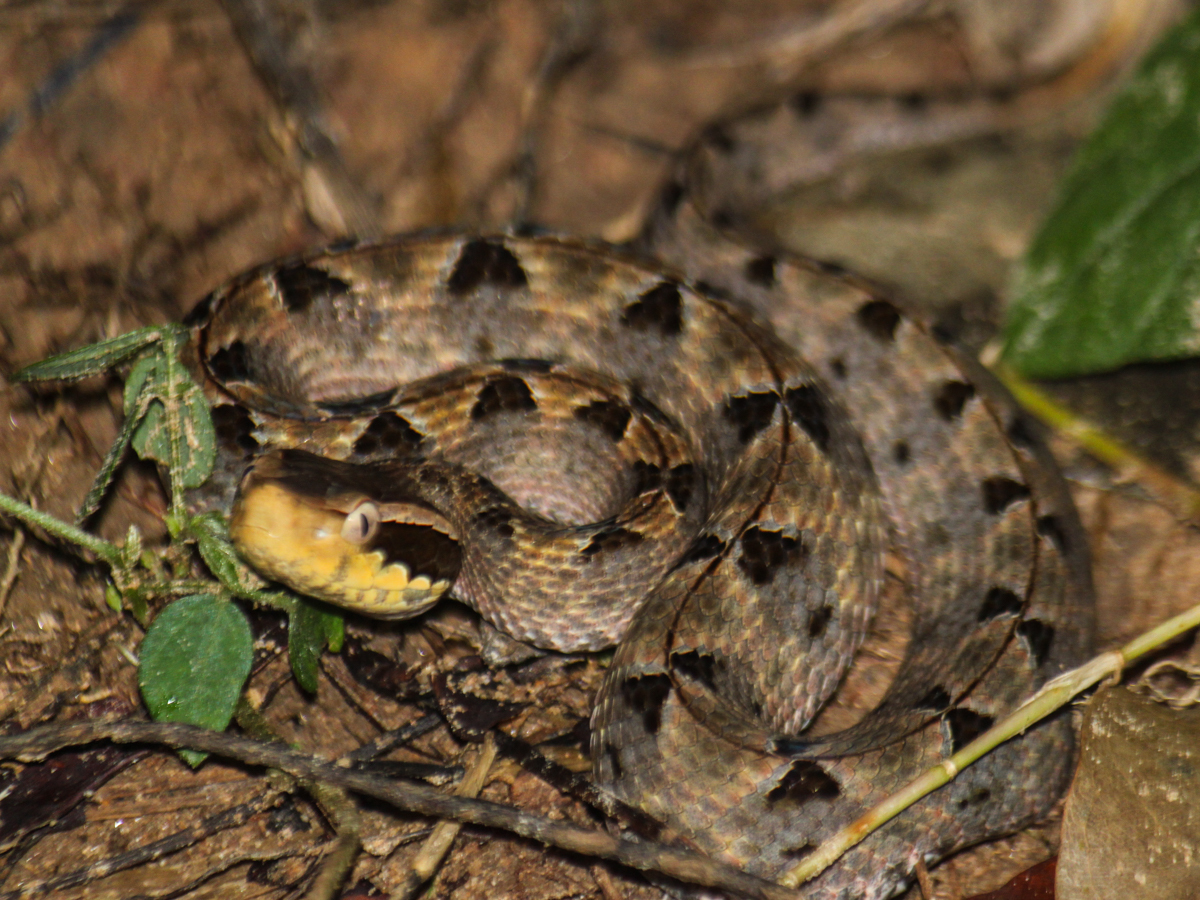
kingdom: Animalia
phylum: Chordata
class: Squamata
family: Viperidae
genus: Calloselasma
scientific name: Calloselasma rhodostoma
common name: Malayan pit viper
